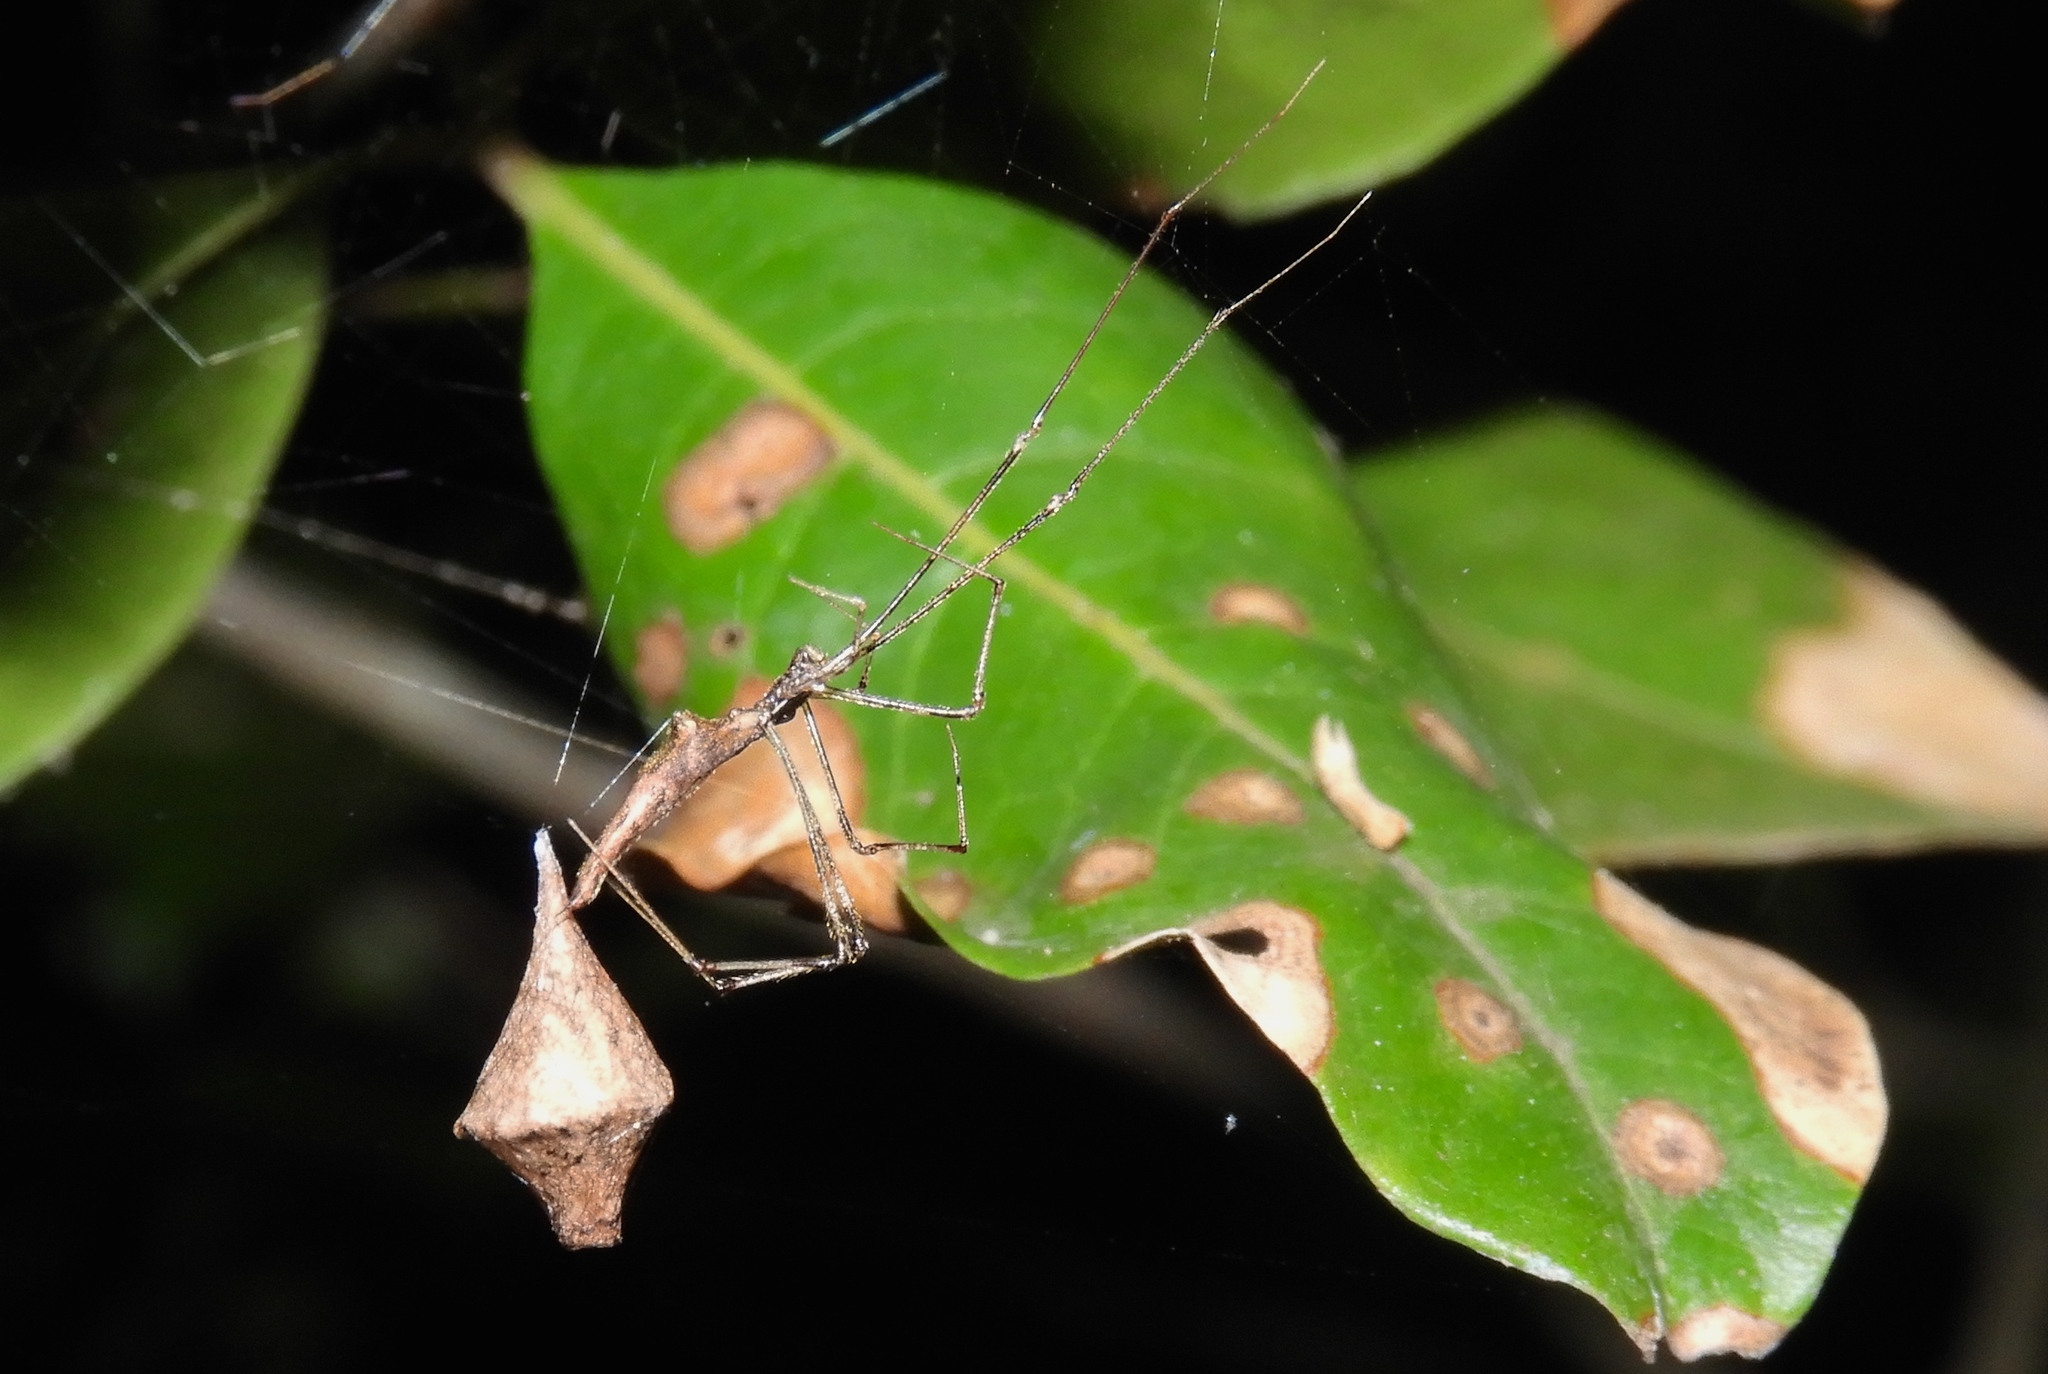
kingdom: Animalia
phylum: Arthropoda
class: Arachnida
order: Araneae
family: Theridiidae
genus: Rhomphaea
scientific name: Rhomphaea
